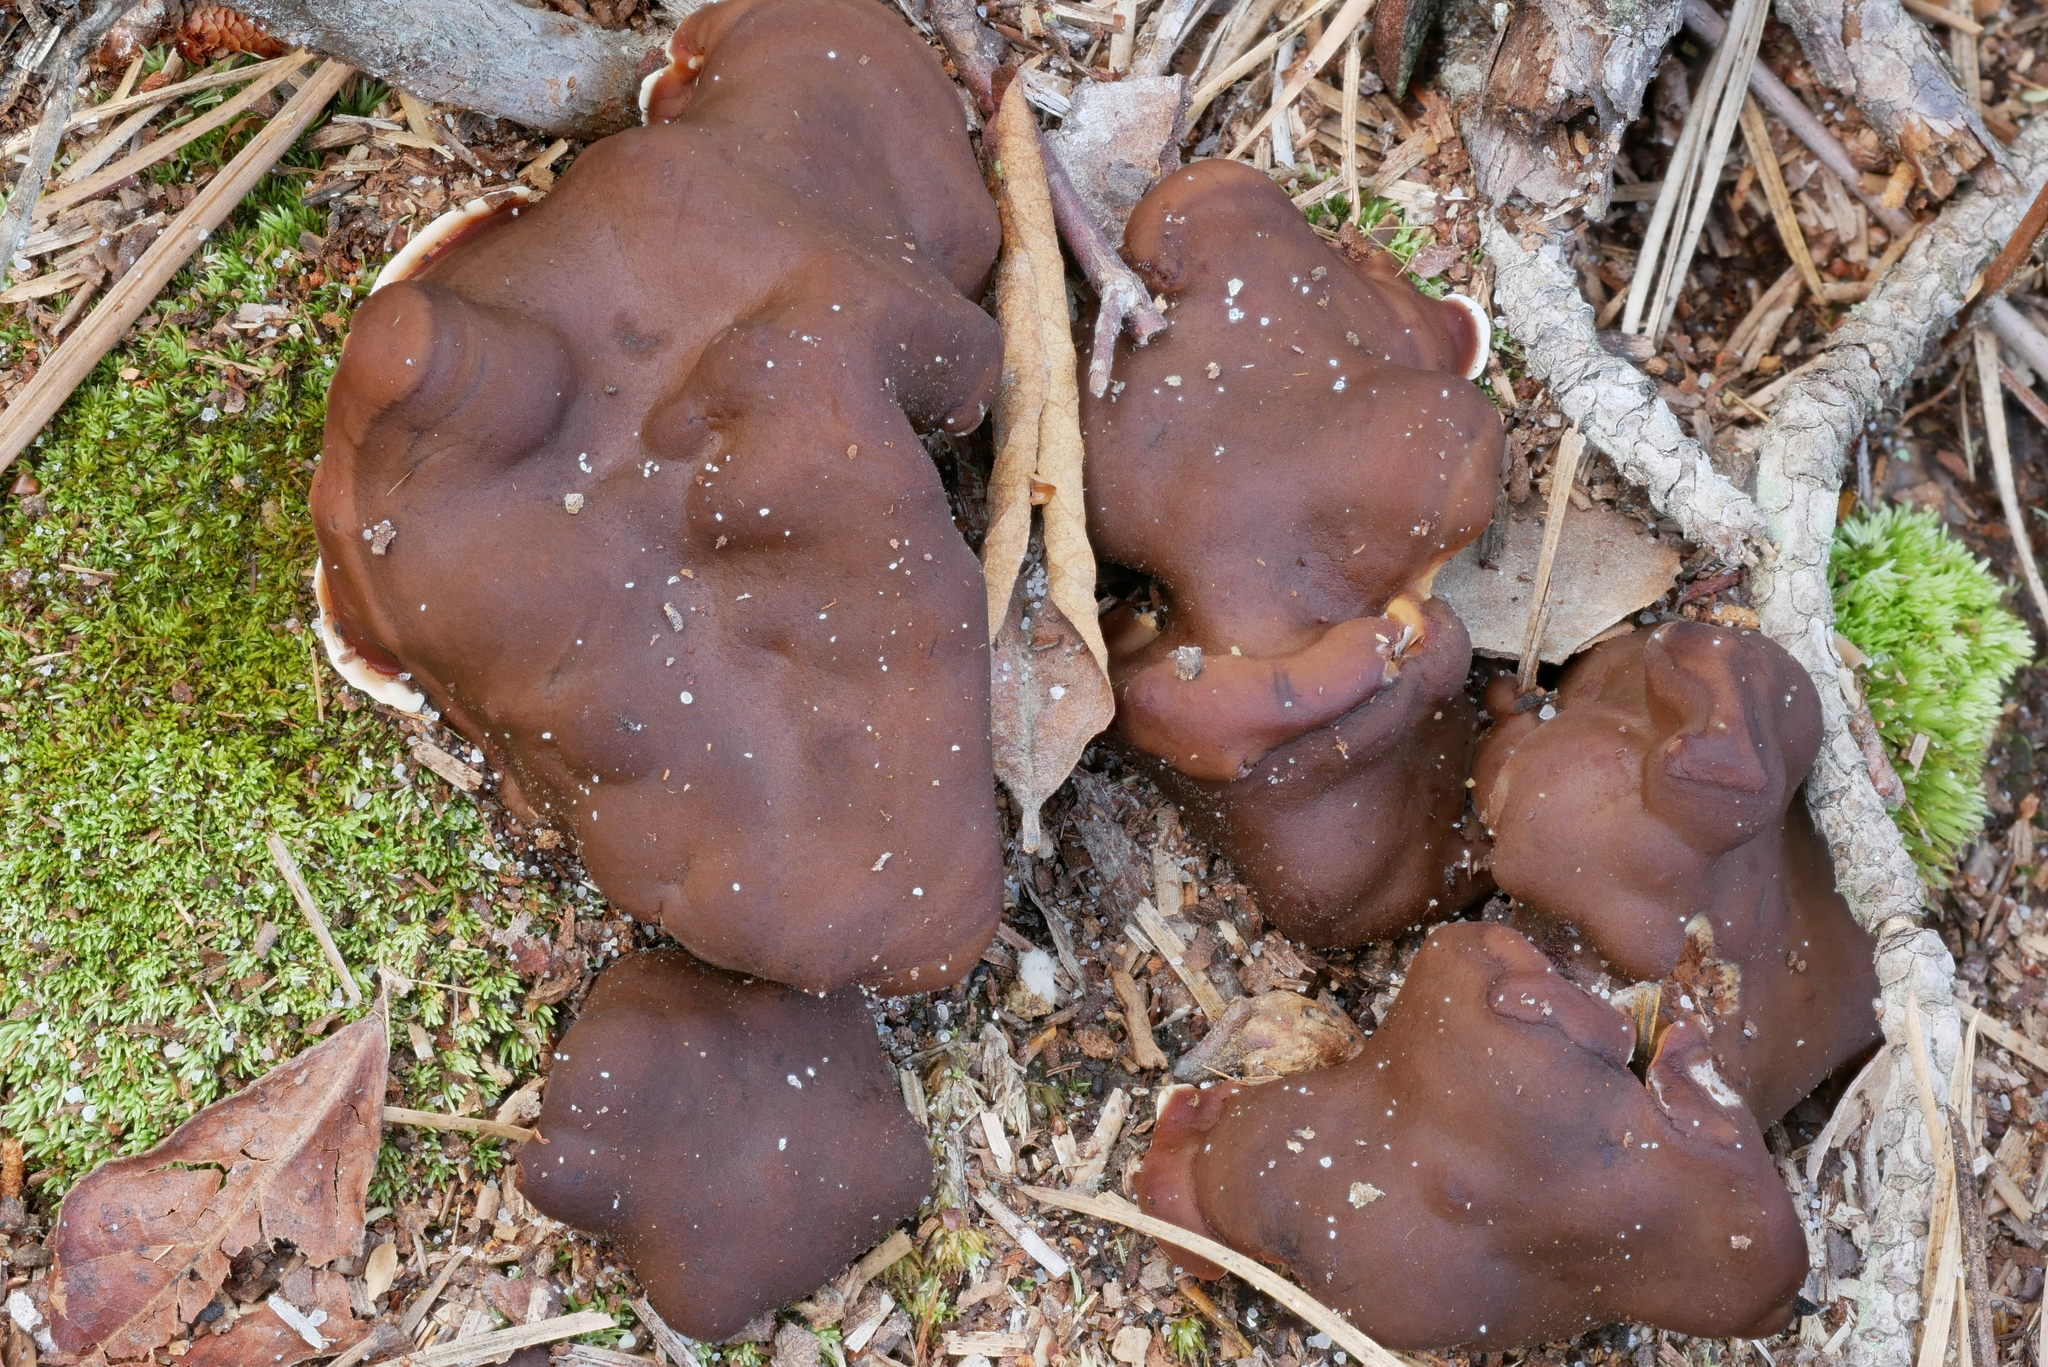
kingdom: Fungi
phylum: Ascomycota
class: Pezizomycetes
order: Pezizales
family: Rhizinaceae
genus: Rhizina
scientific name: Rhizina undulata
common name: Pine firefungus
